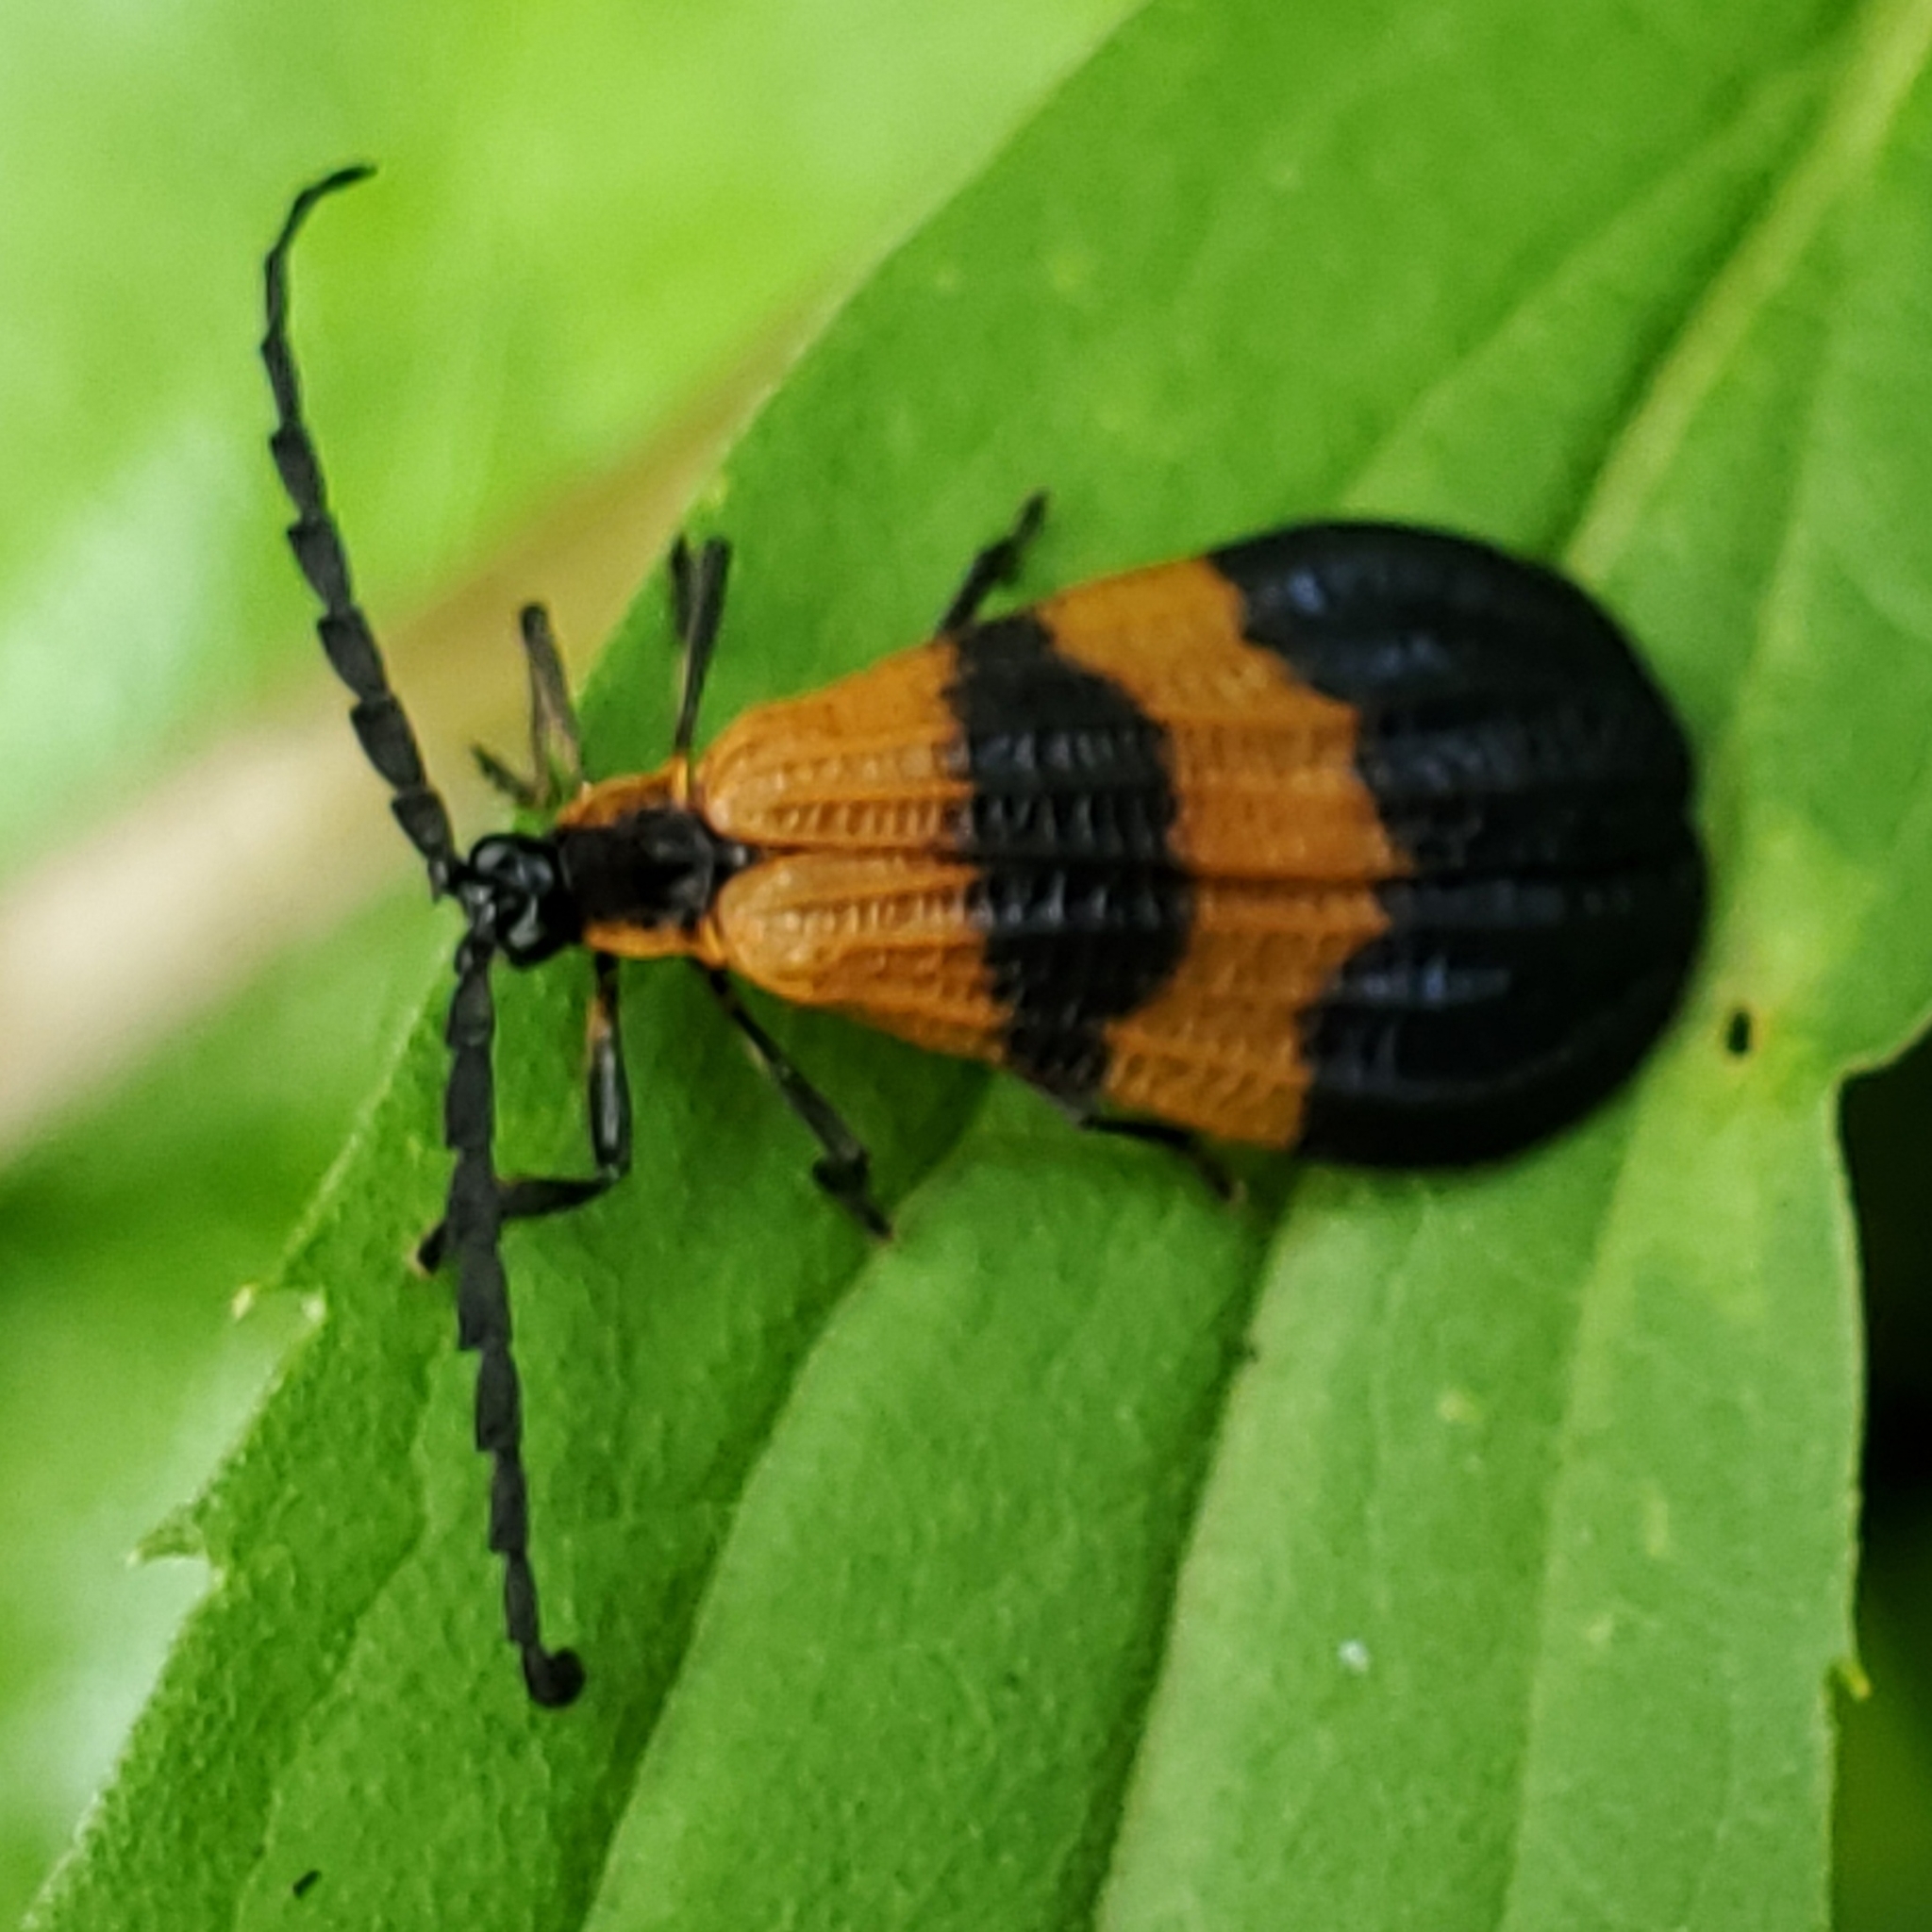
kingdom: Animalia
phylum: Arthropoda
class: Insecta
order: Coleoptera
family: Lycidae
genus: Calopteron
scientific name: Calopteron terminale
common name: End band net-winged beetle
